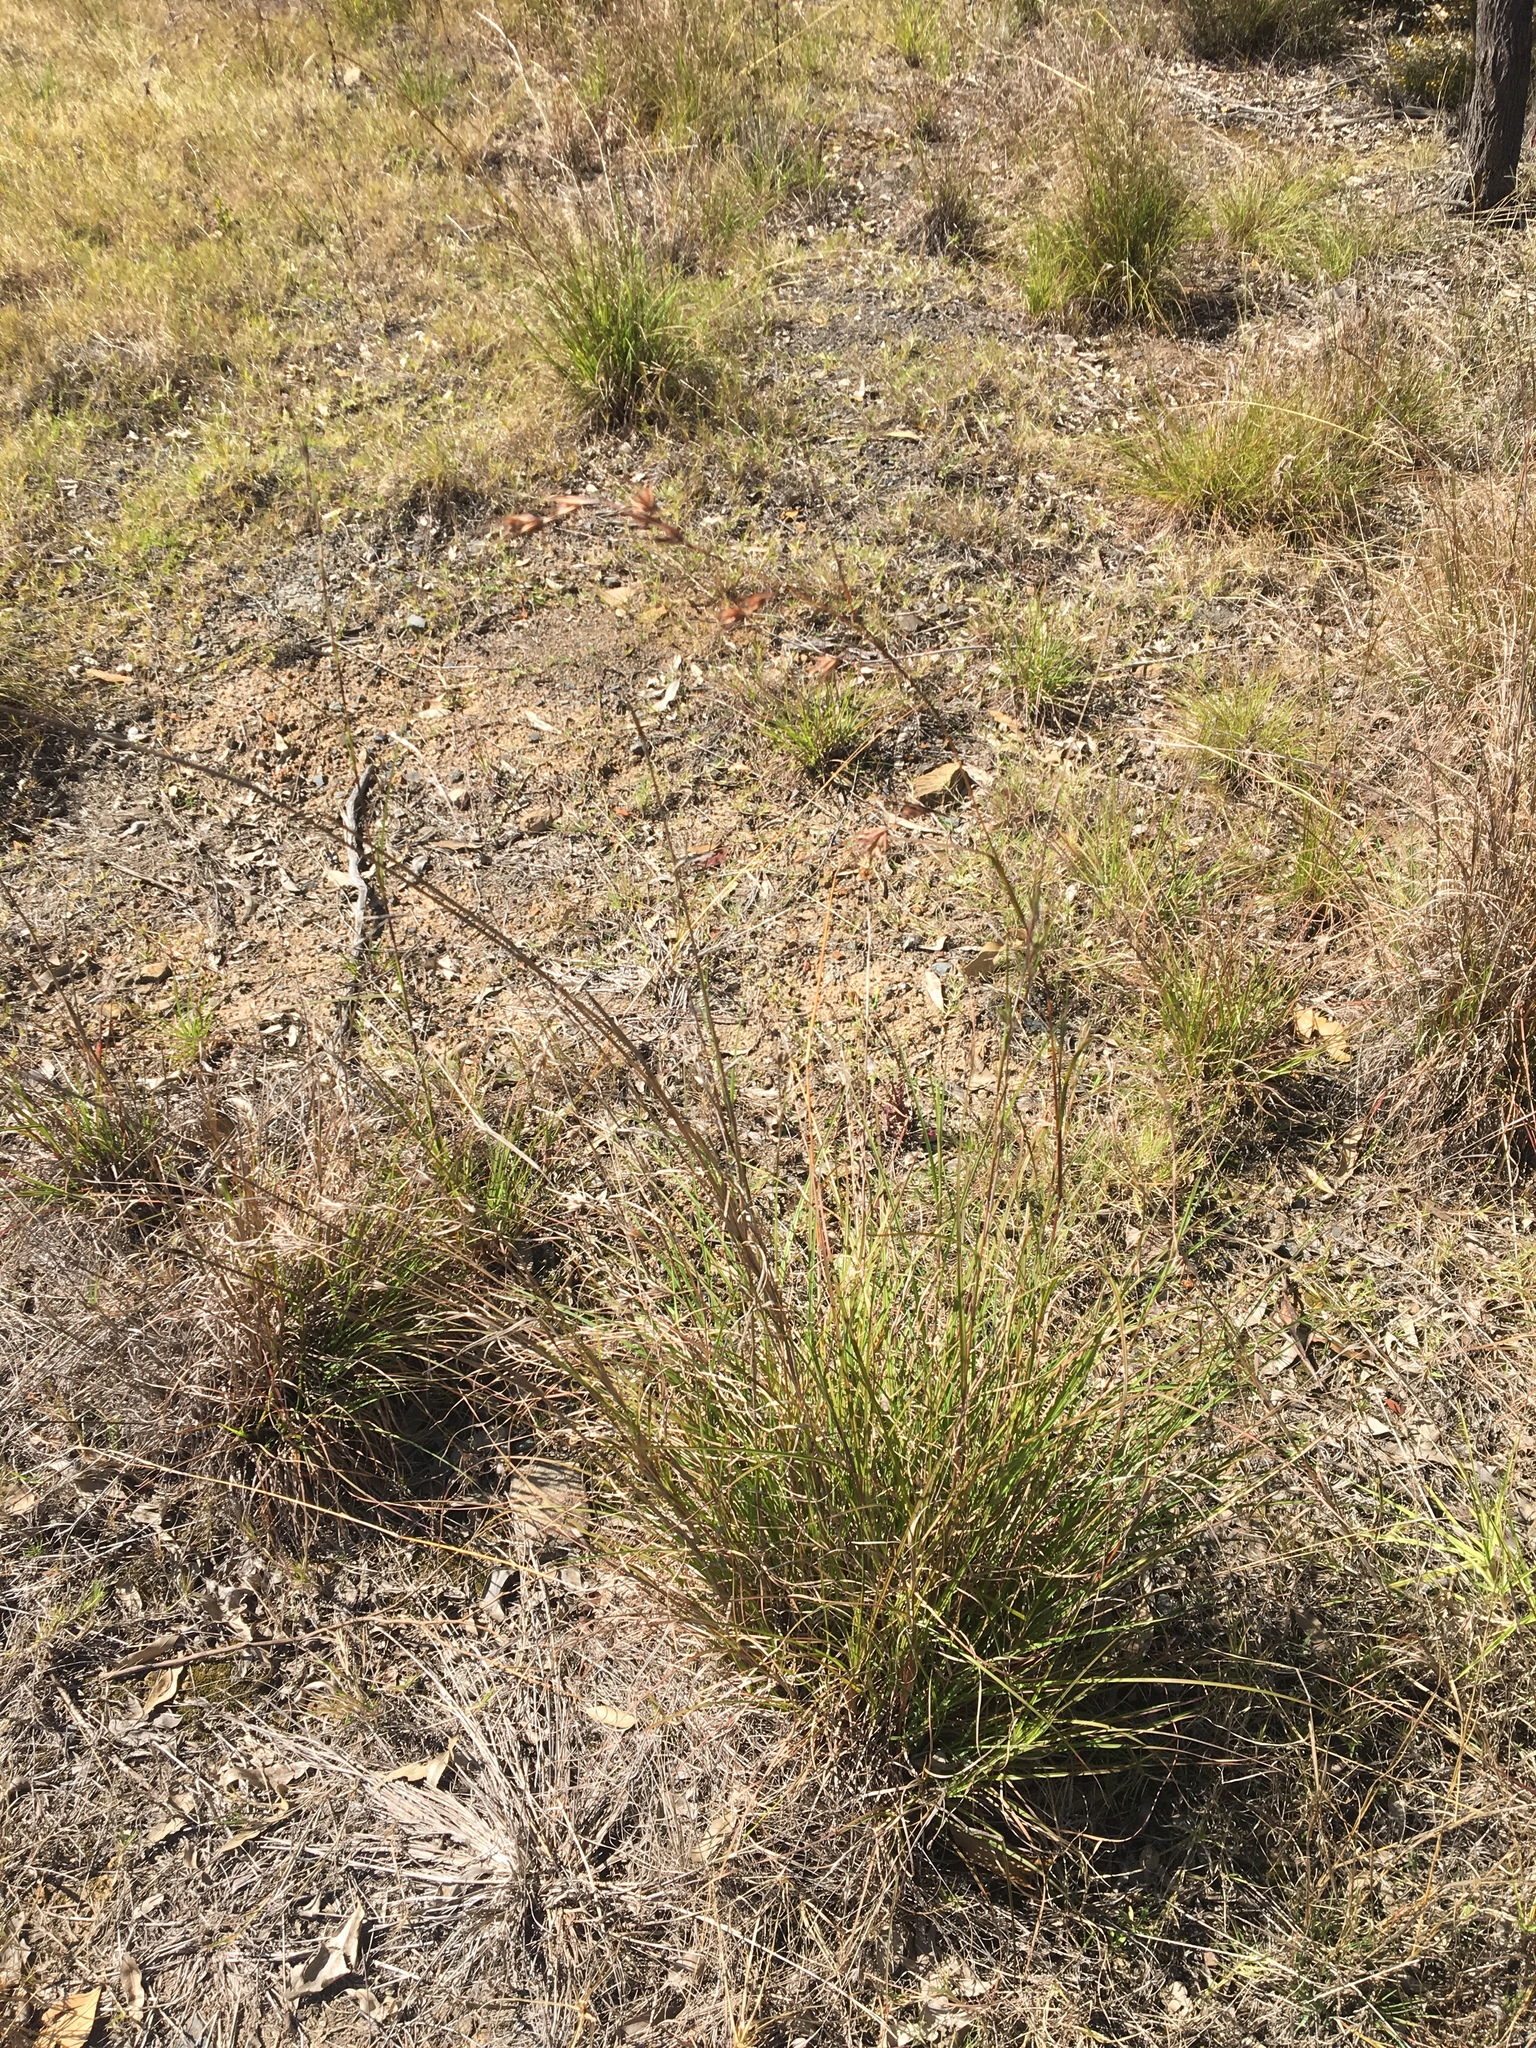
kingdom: Plantae
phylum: Tracheophyta
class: Liliopsida
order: Poales
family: Poaceae
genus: Themeda
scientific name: Themeda triandra
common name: Kangaroo grass
